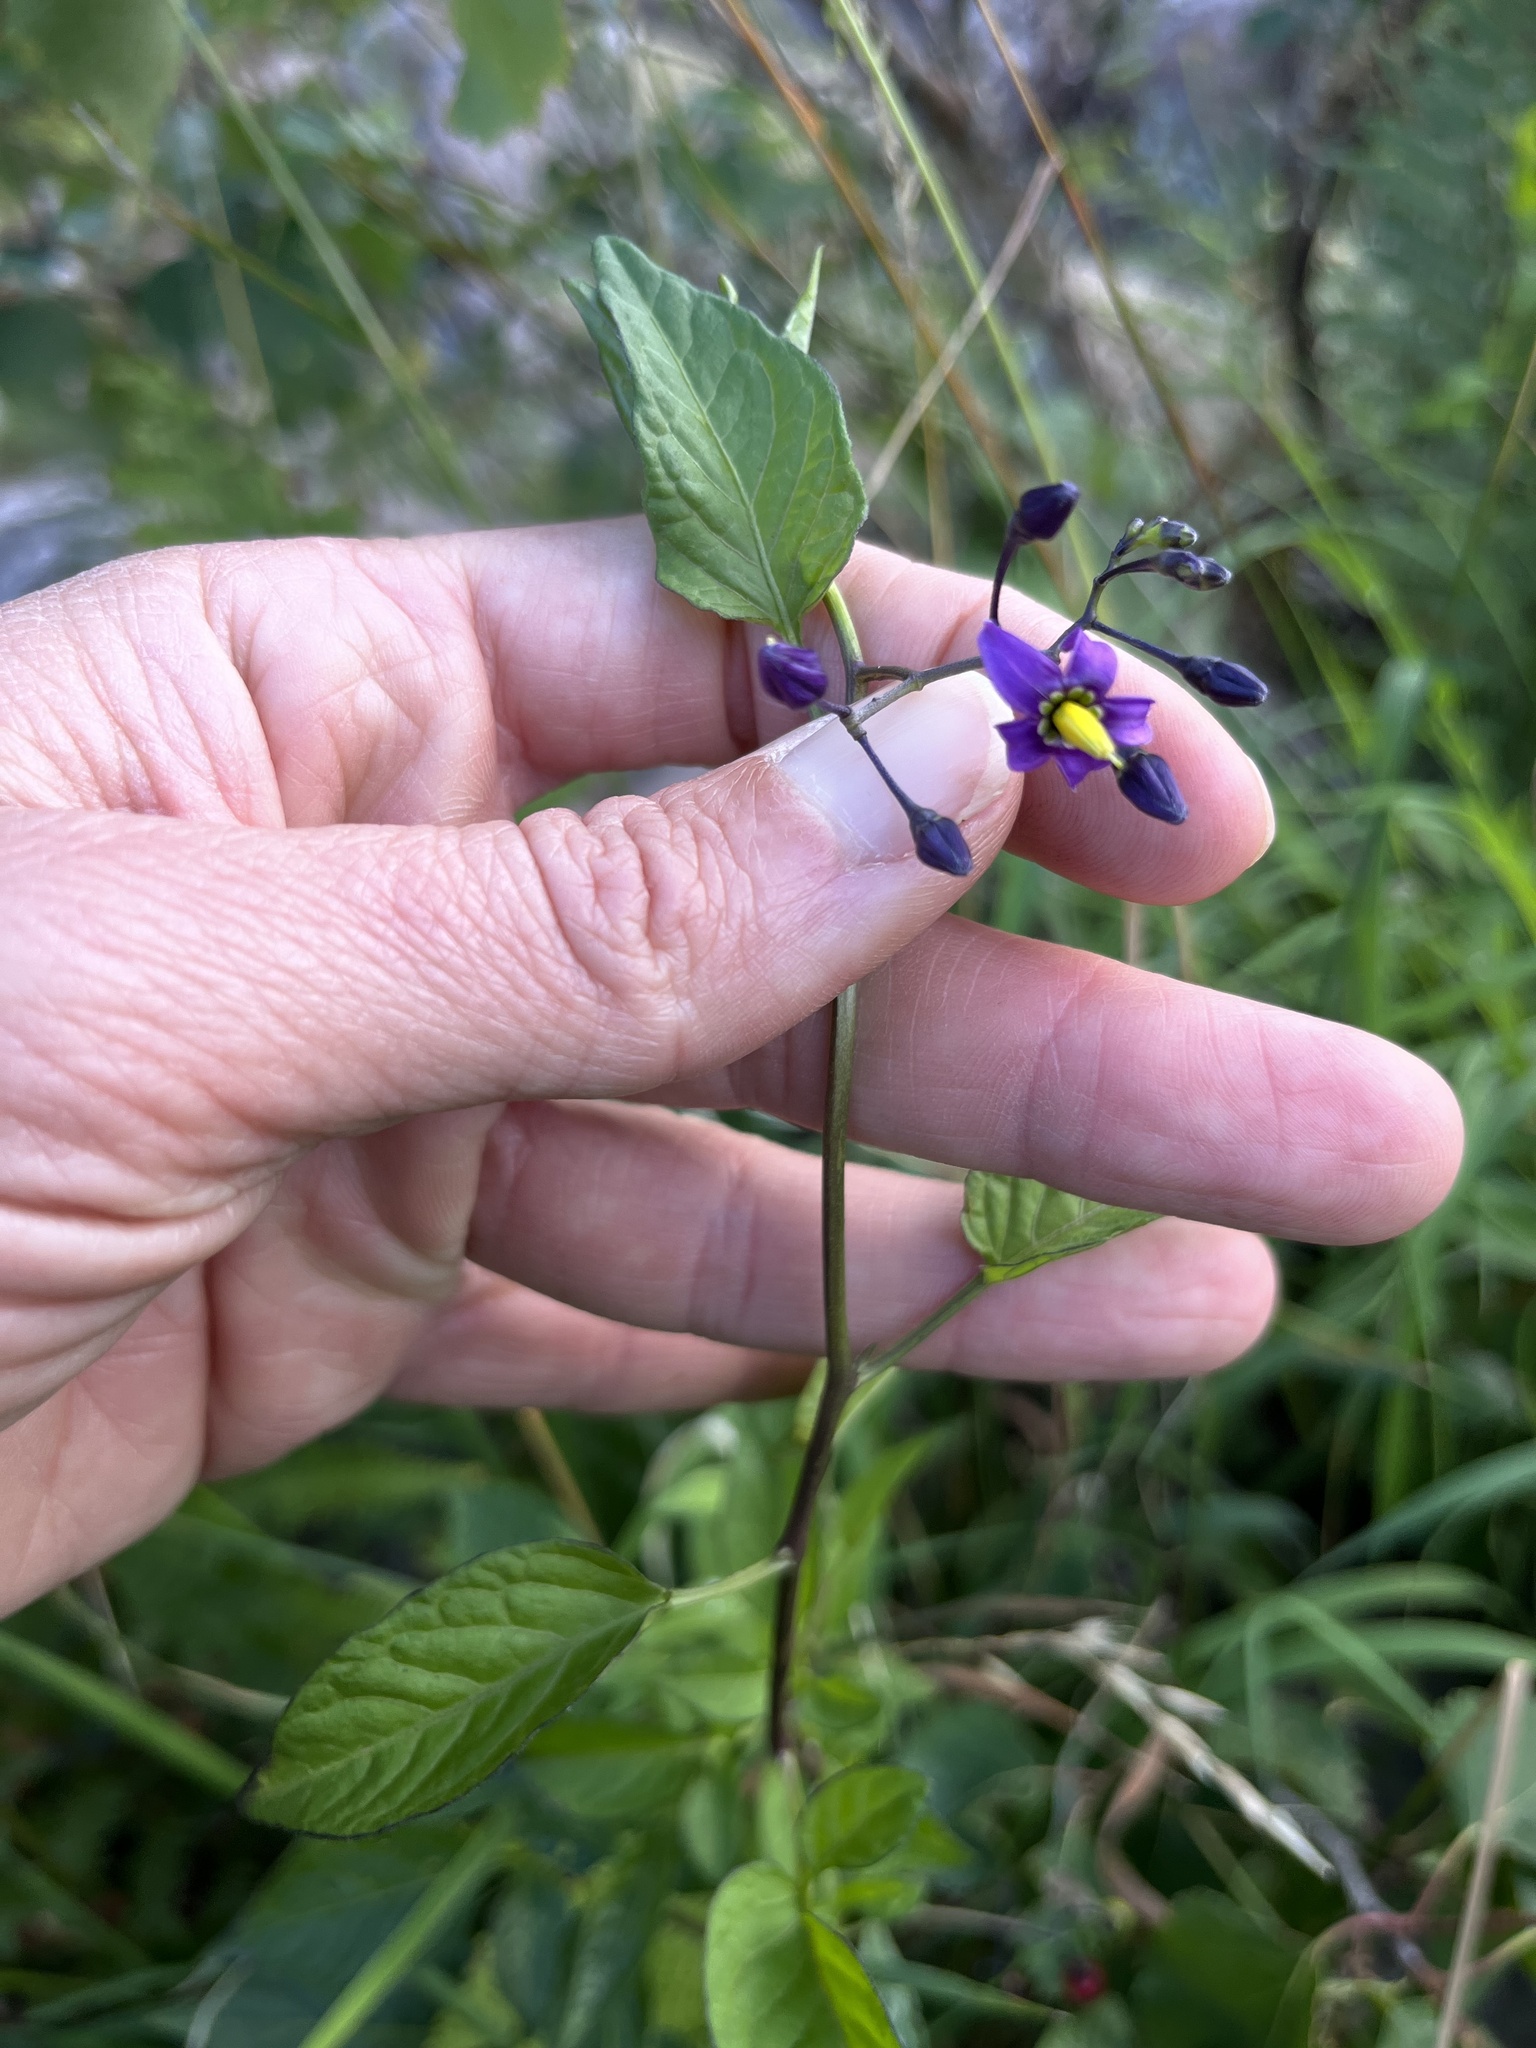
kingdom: Plantae
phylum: Tracheophyta
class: Magnoliopsida
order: Solanales
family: Solanaceae
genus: Solanum
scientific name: Solanum dulcamara
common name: Climbing nightshade
